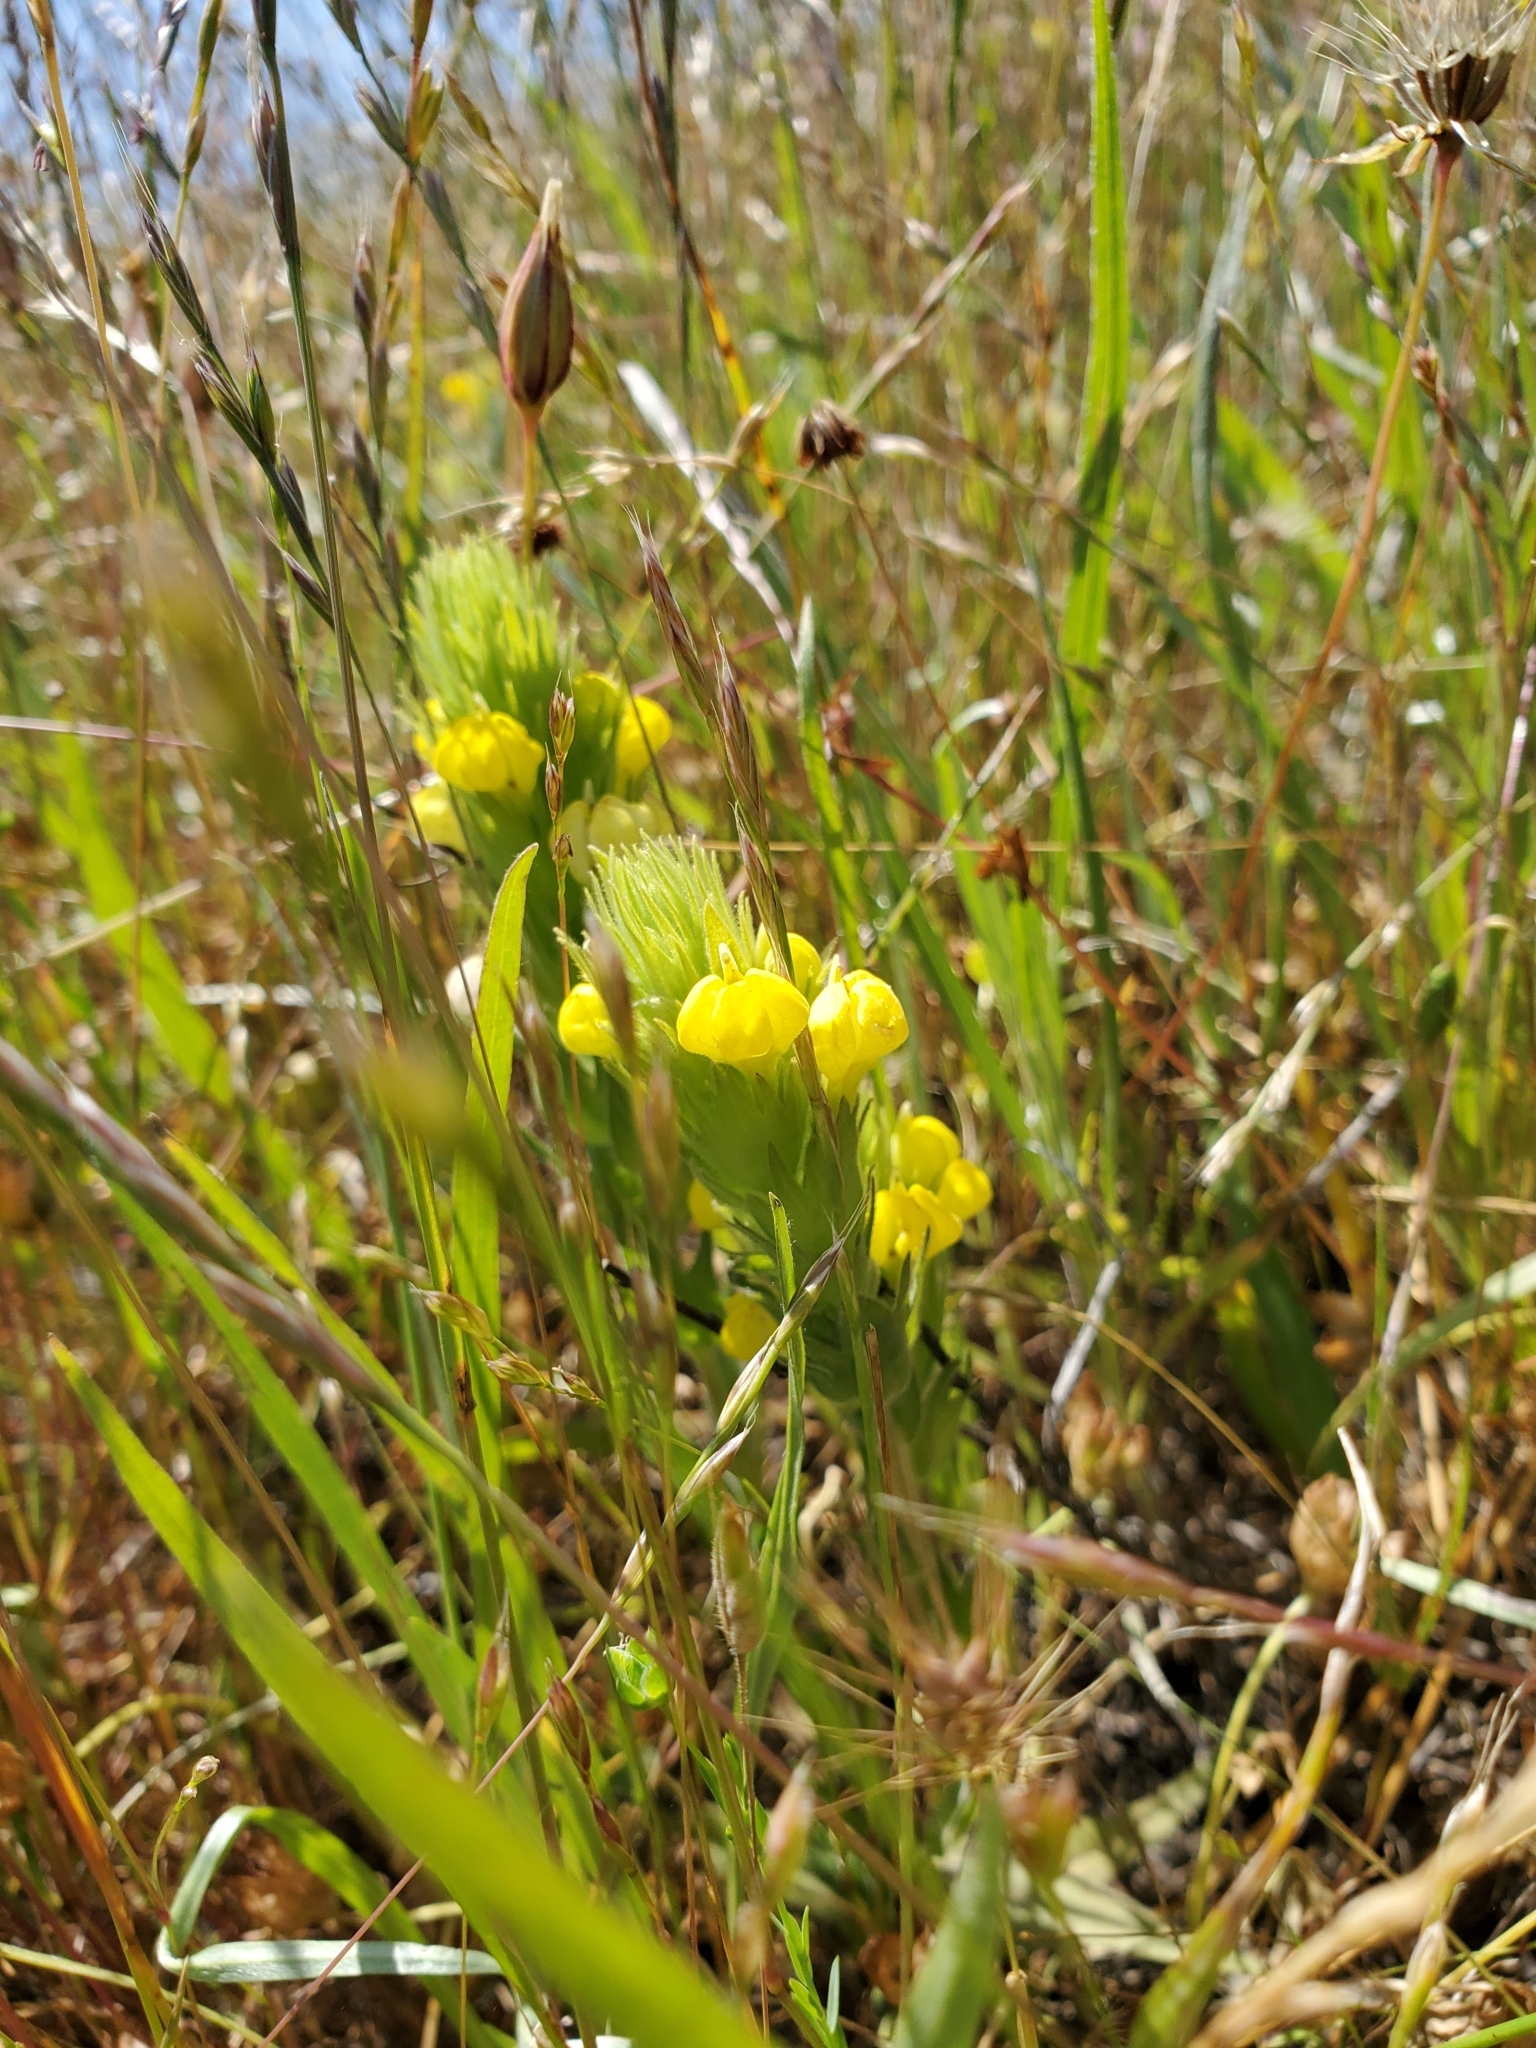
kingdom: Plantae
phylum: Tracheophyta
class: Magnoliopsida
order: Lamiales
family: Orobanchaceae
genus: Castilleja
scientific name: Castilleja rubicundula
